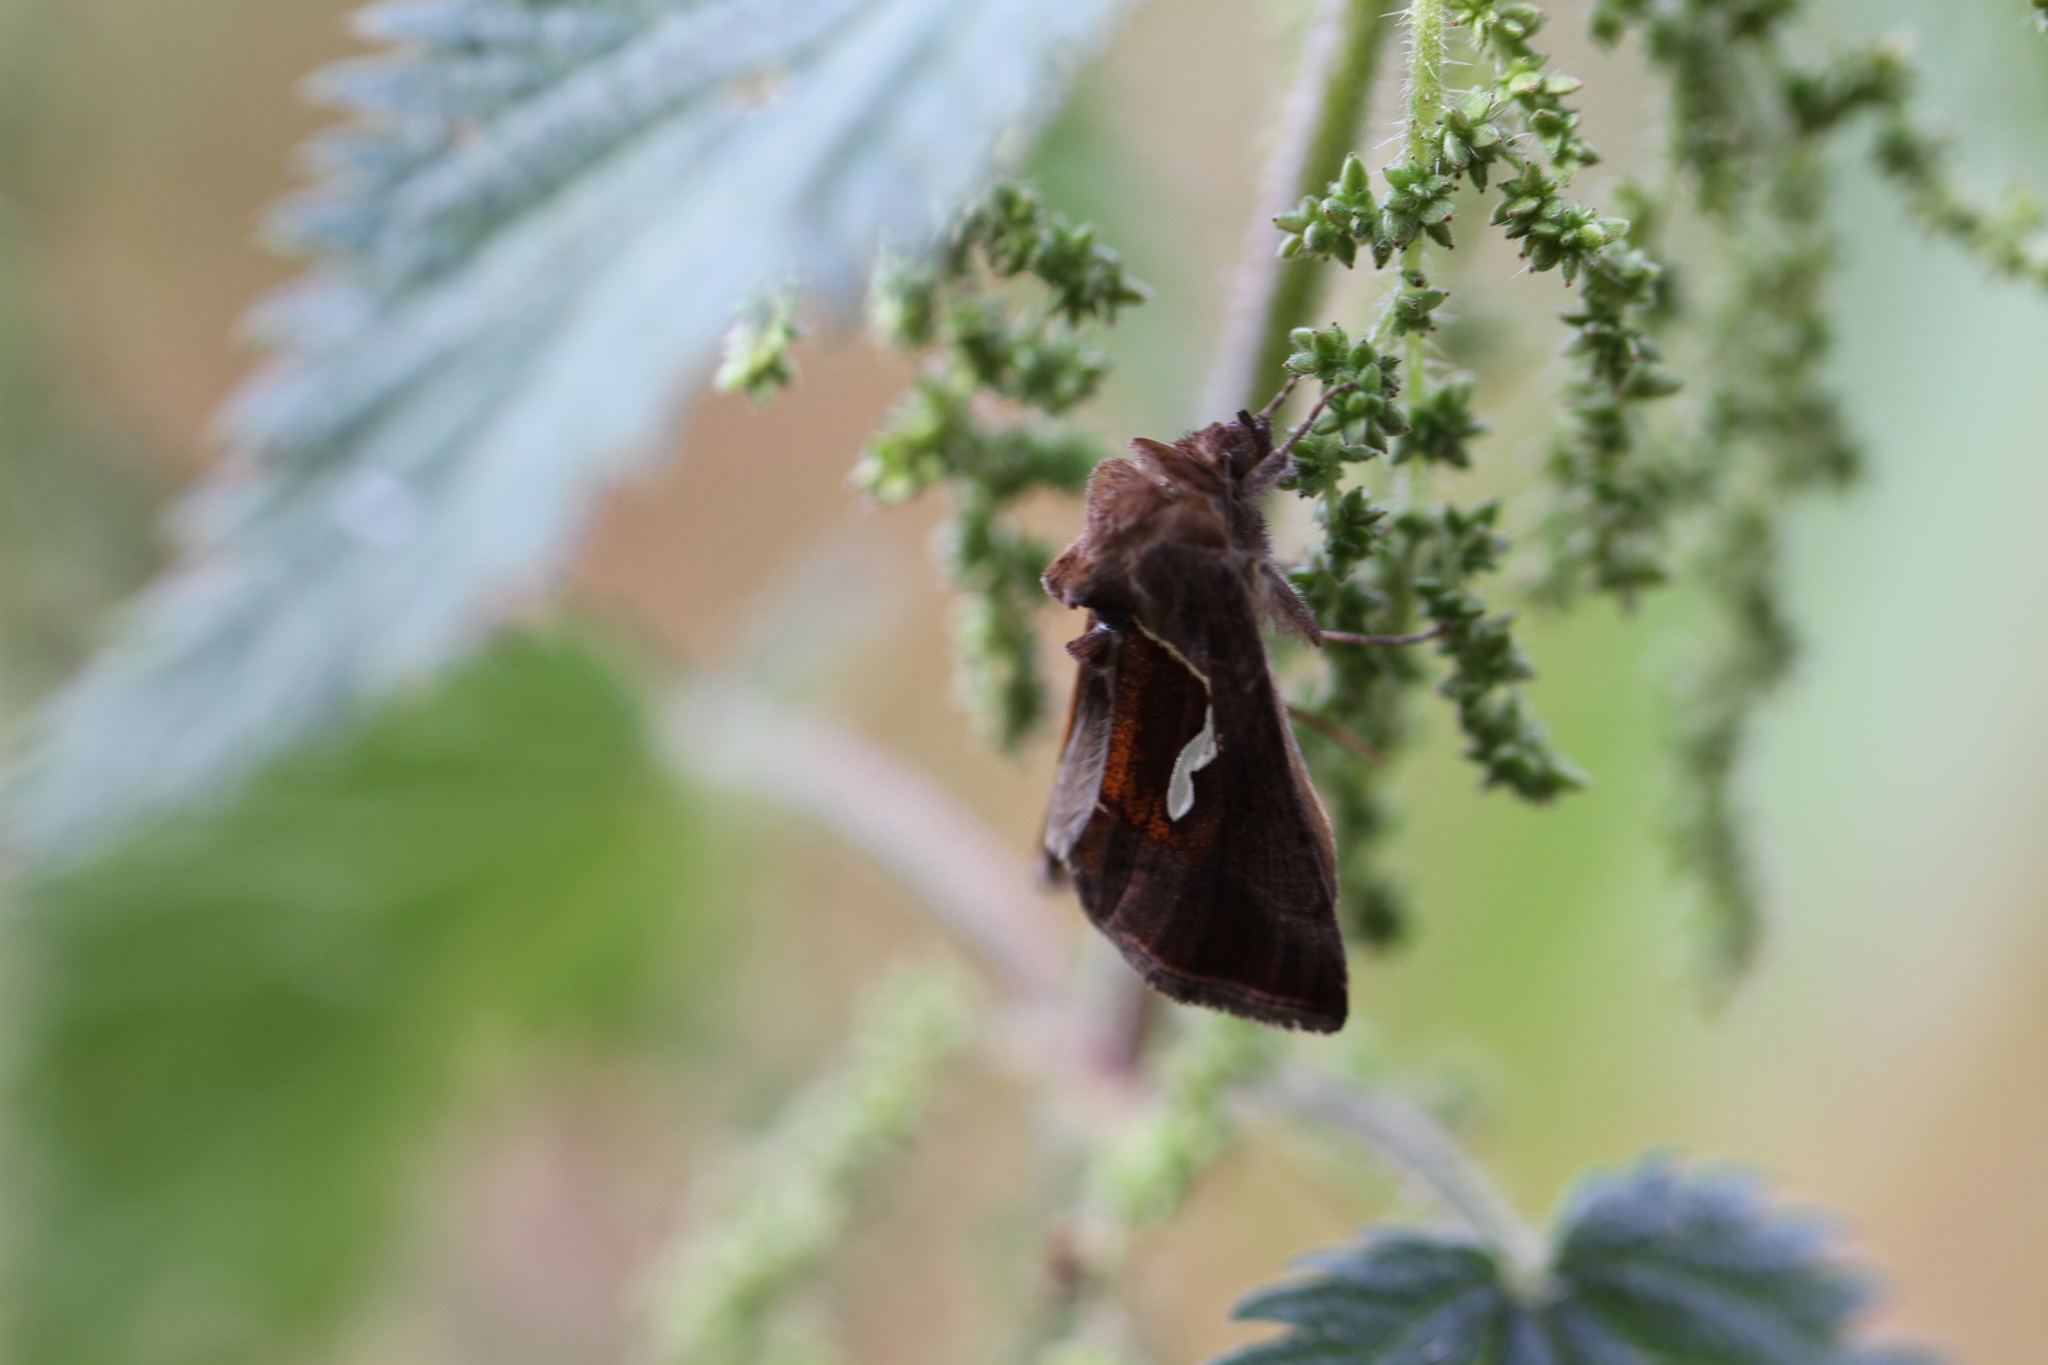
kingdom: Animalia
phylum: Arthropoda
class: Insecta
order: Lepidoptera
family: Noctuidae
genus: Macdunnoughia
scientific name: Macdunnoughia confusa
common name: Dewick's plusia
